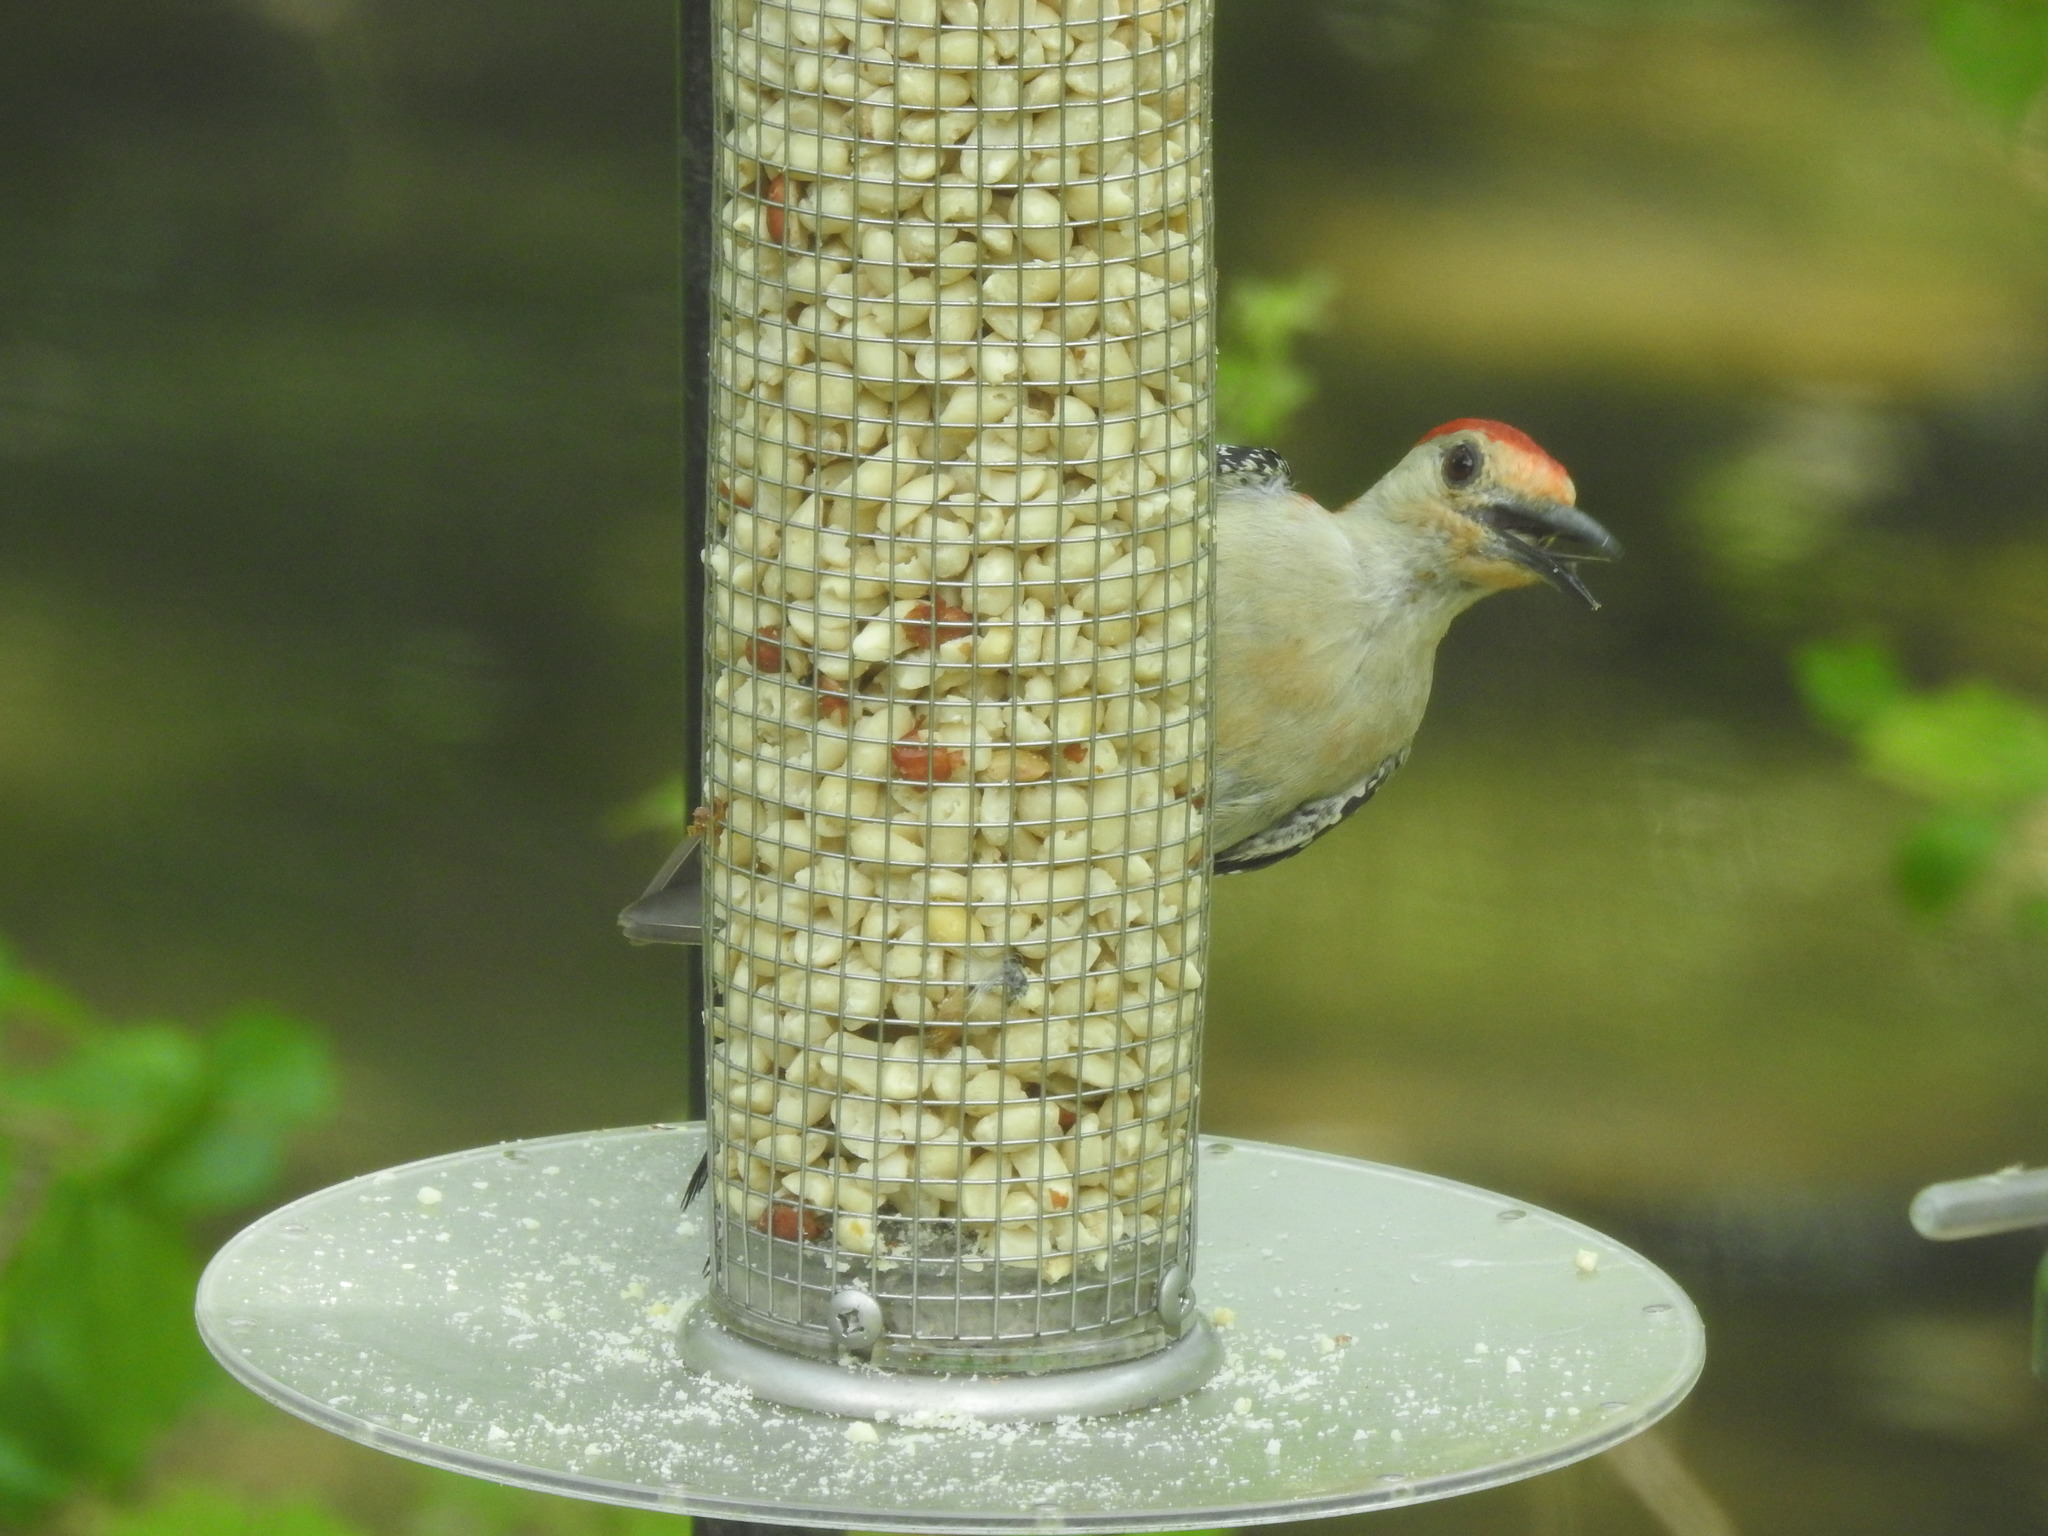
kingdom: Animalia
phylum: Chordata
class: Aves
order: Piciformes
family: Picidae
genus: Melanerpes
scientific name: Melanerpes carolinus
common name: Red-bellied woodpecker
